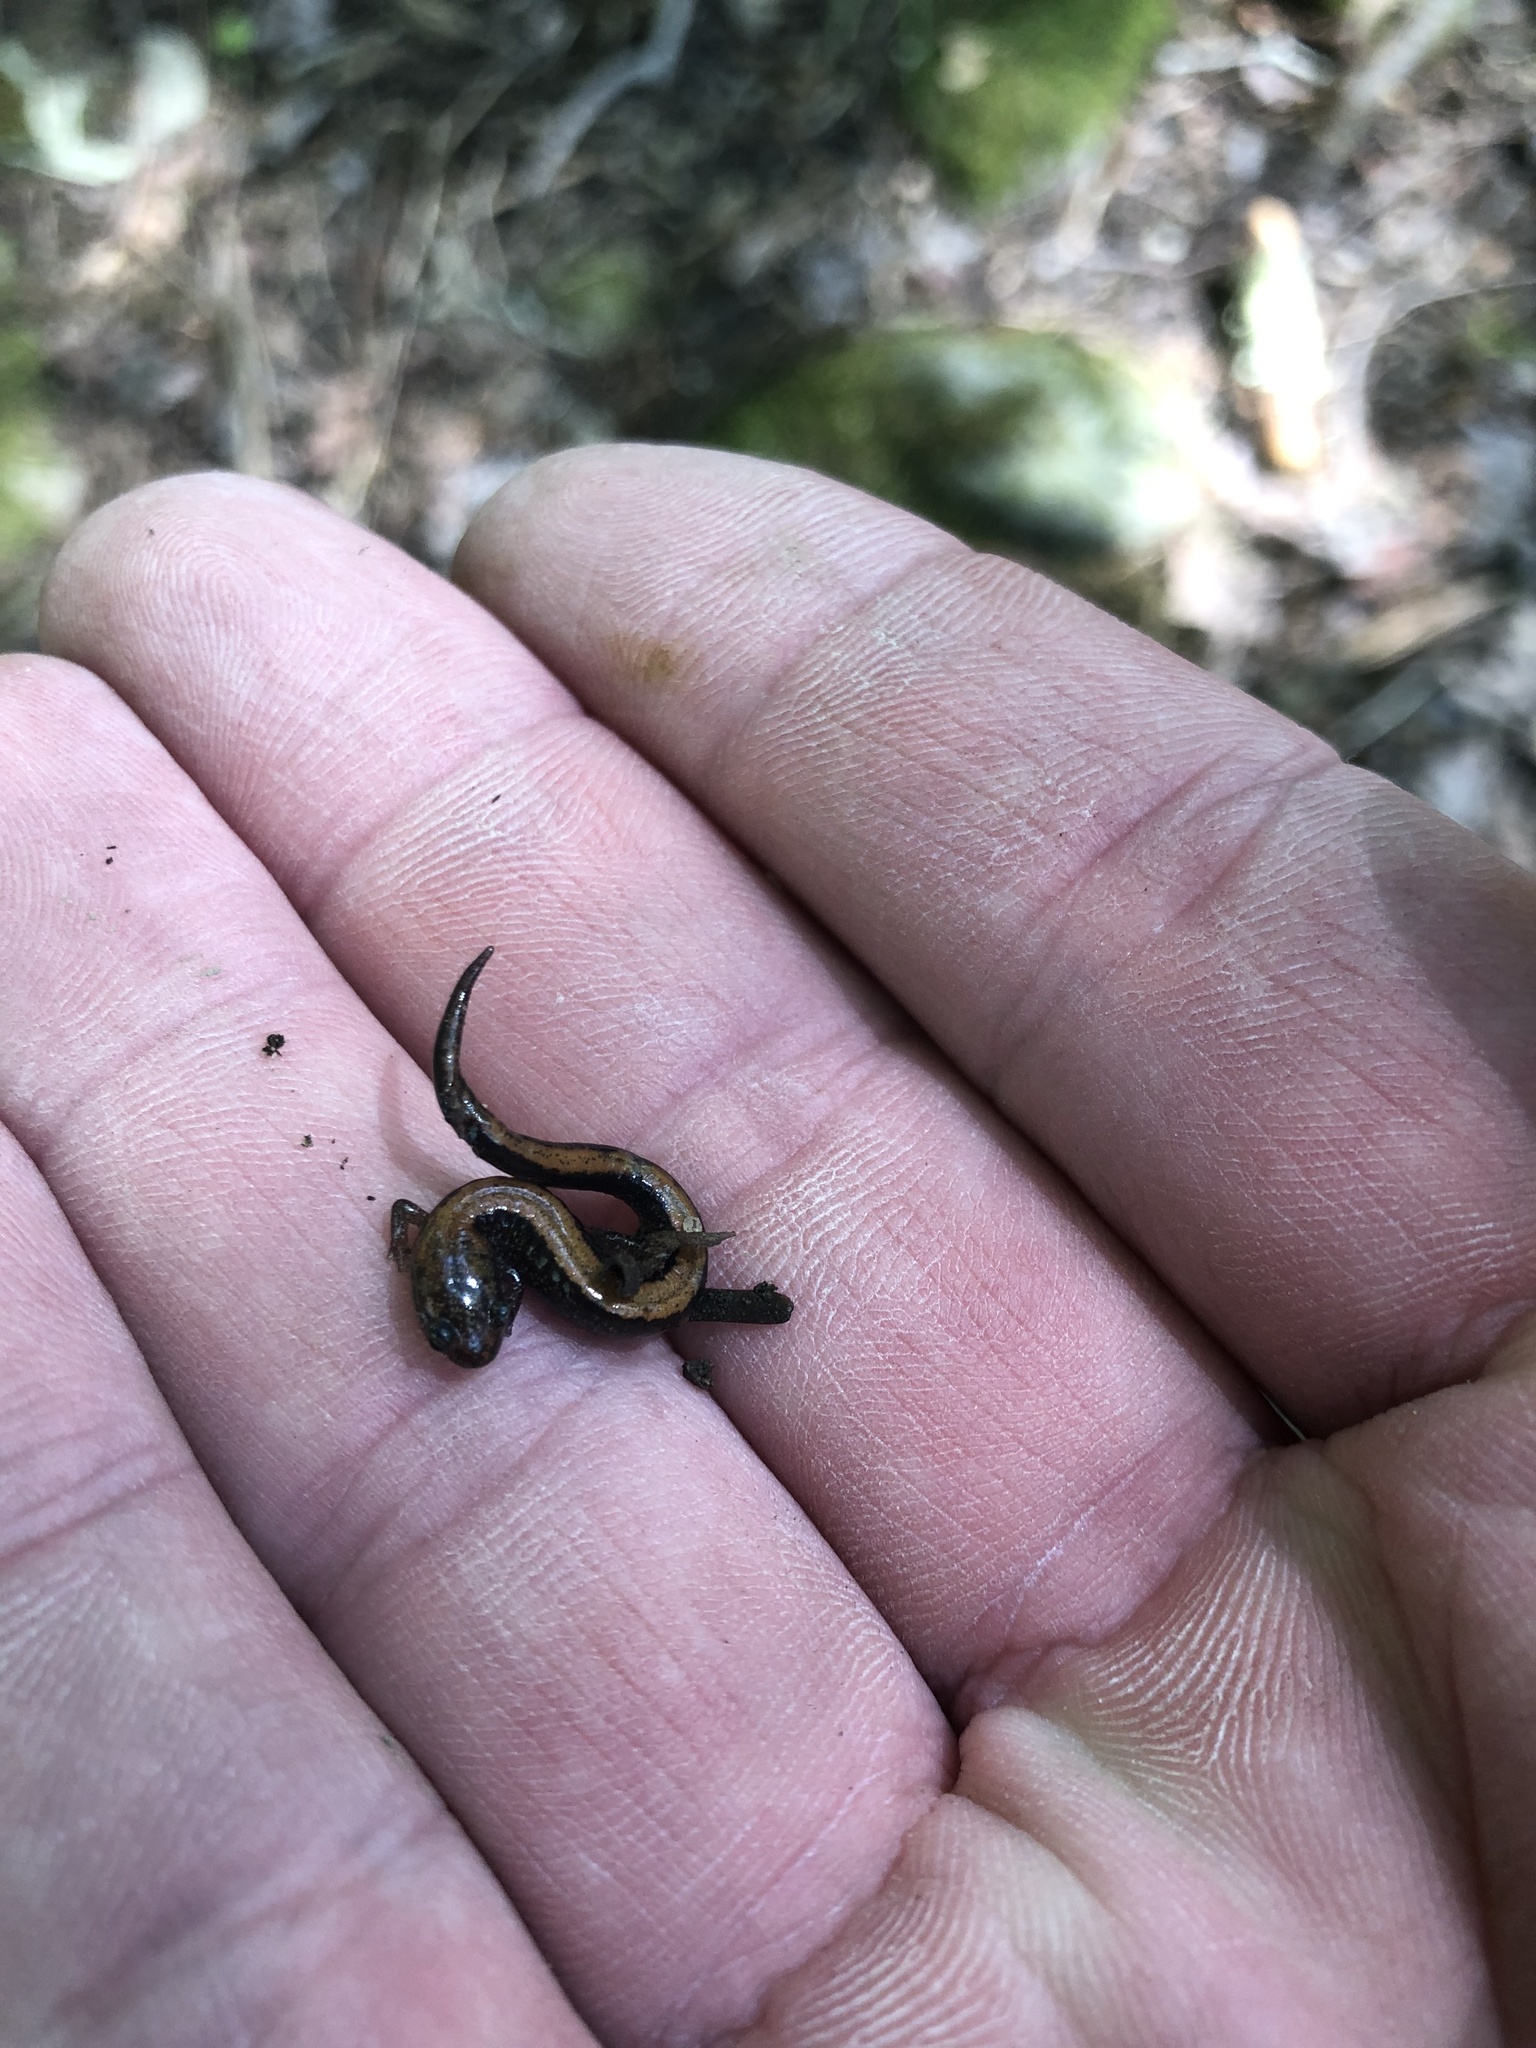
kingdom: Animalia
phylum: Chordata
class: Amphibia
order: Caudata
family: Plethodontidae
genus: Plethodon
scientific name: Plethodon cinereus
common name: Redback salamander
